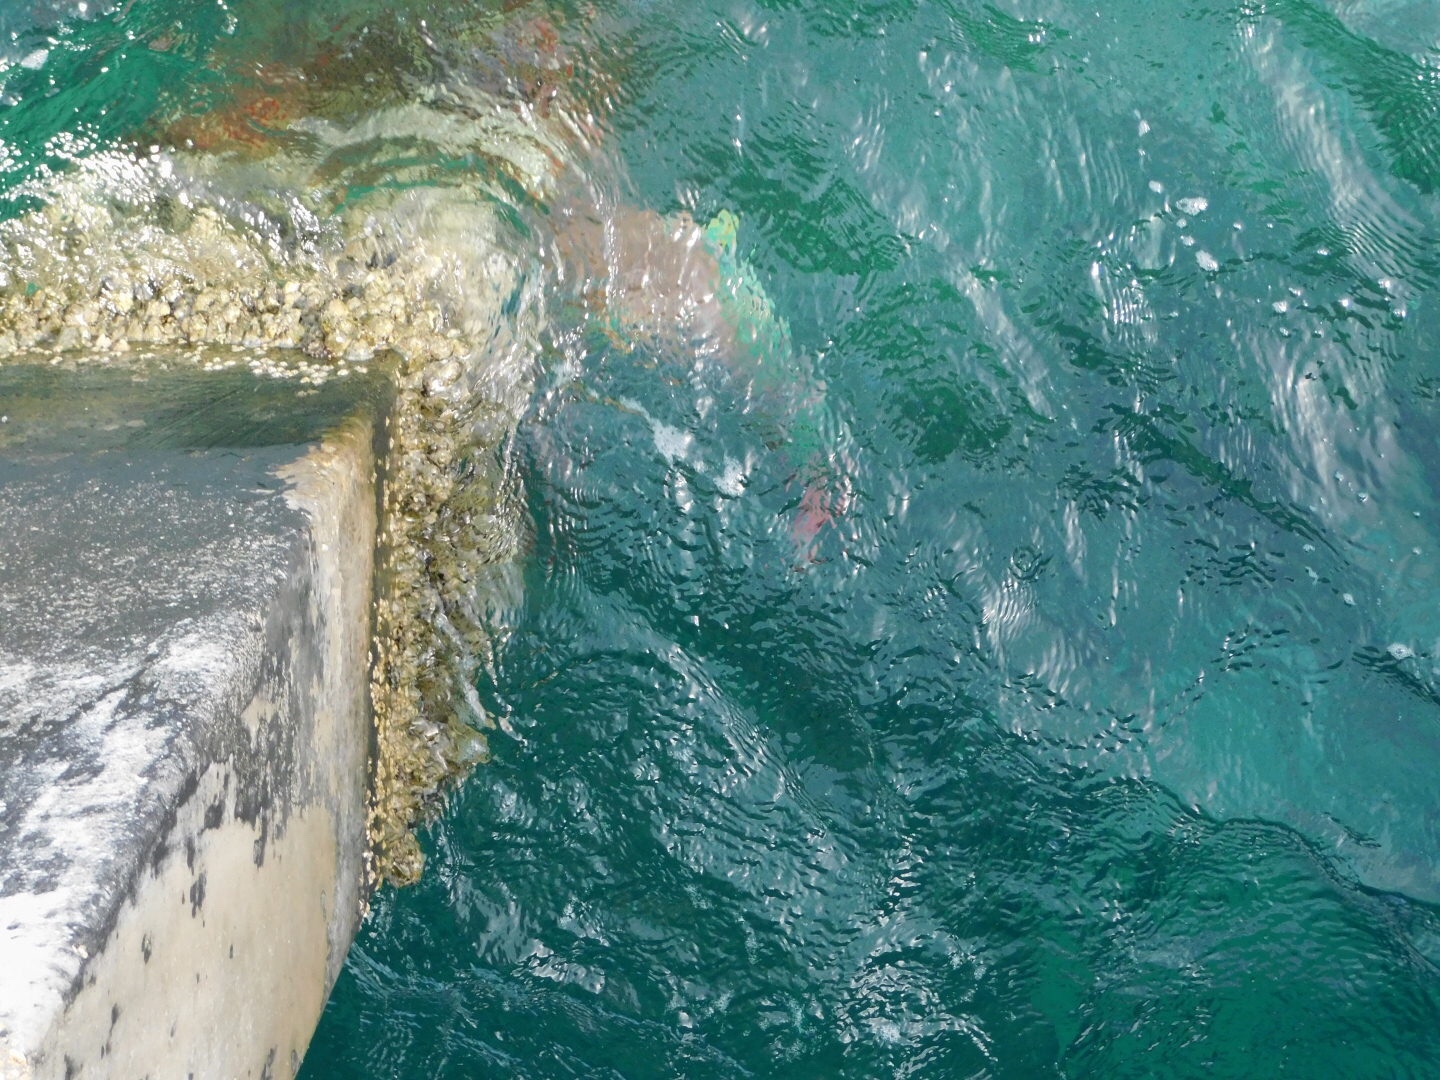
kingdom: Animalia
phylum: Chordata
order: Perciformes
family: Scaridae
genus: Scarus
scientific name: Scarus guacamaia
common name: Rainbow parrotfish
